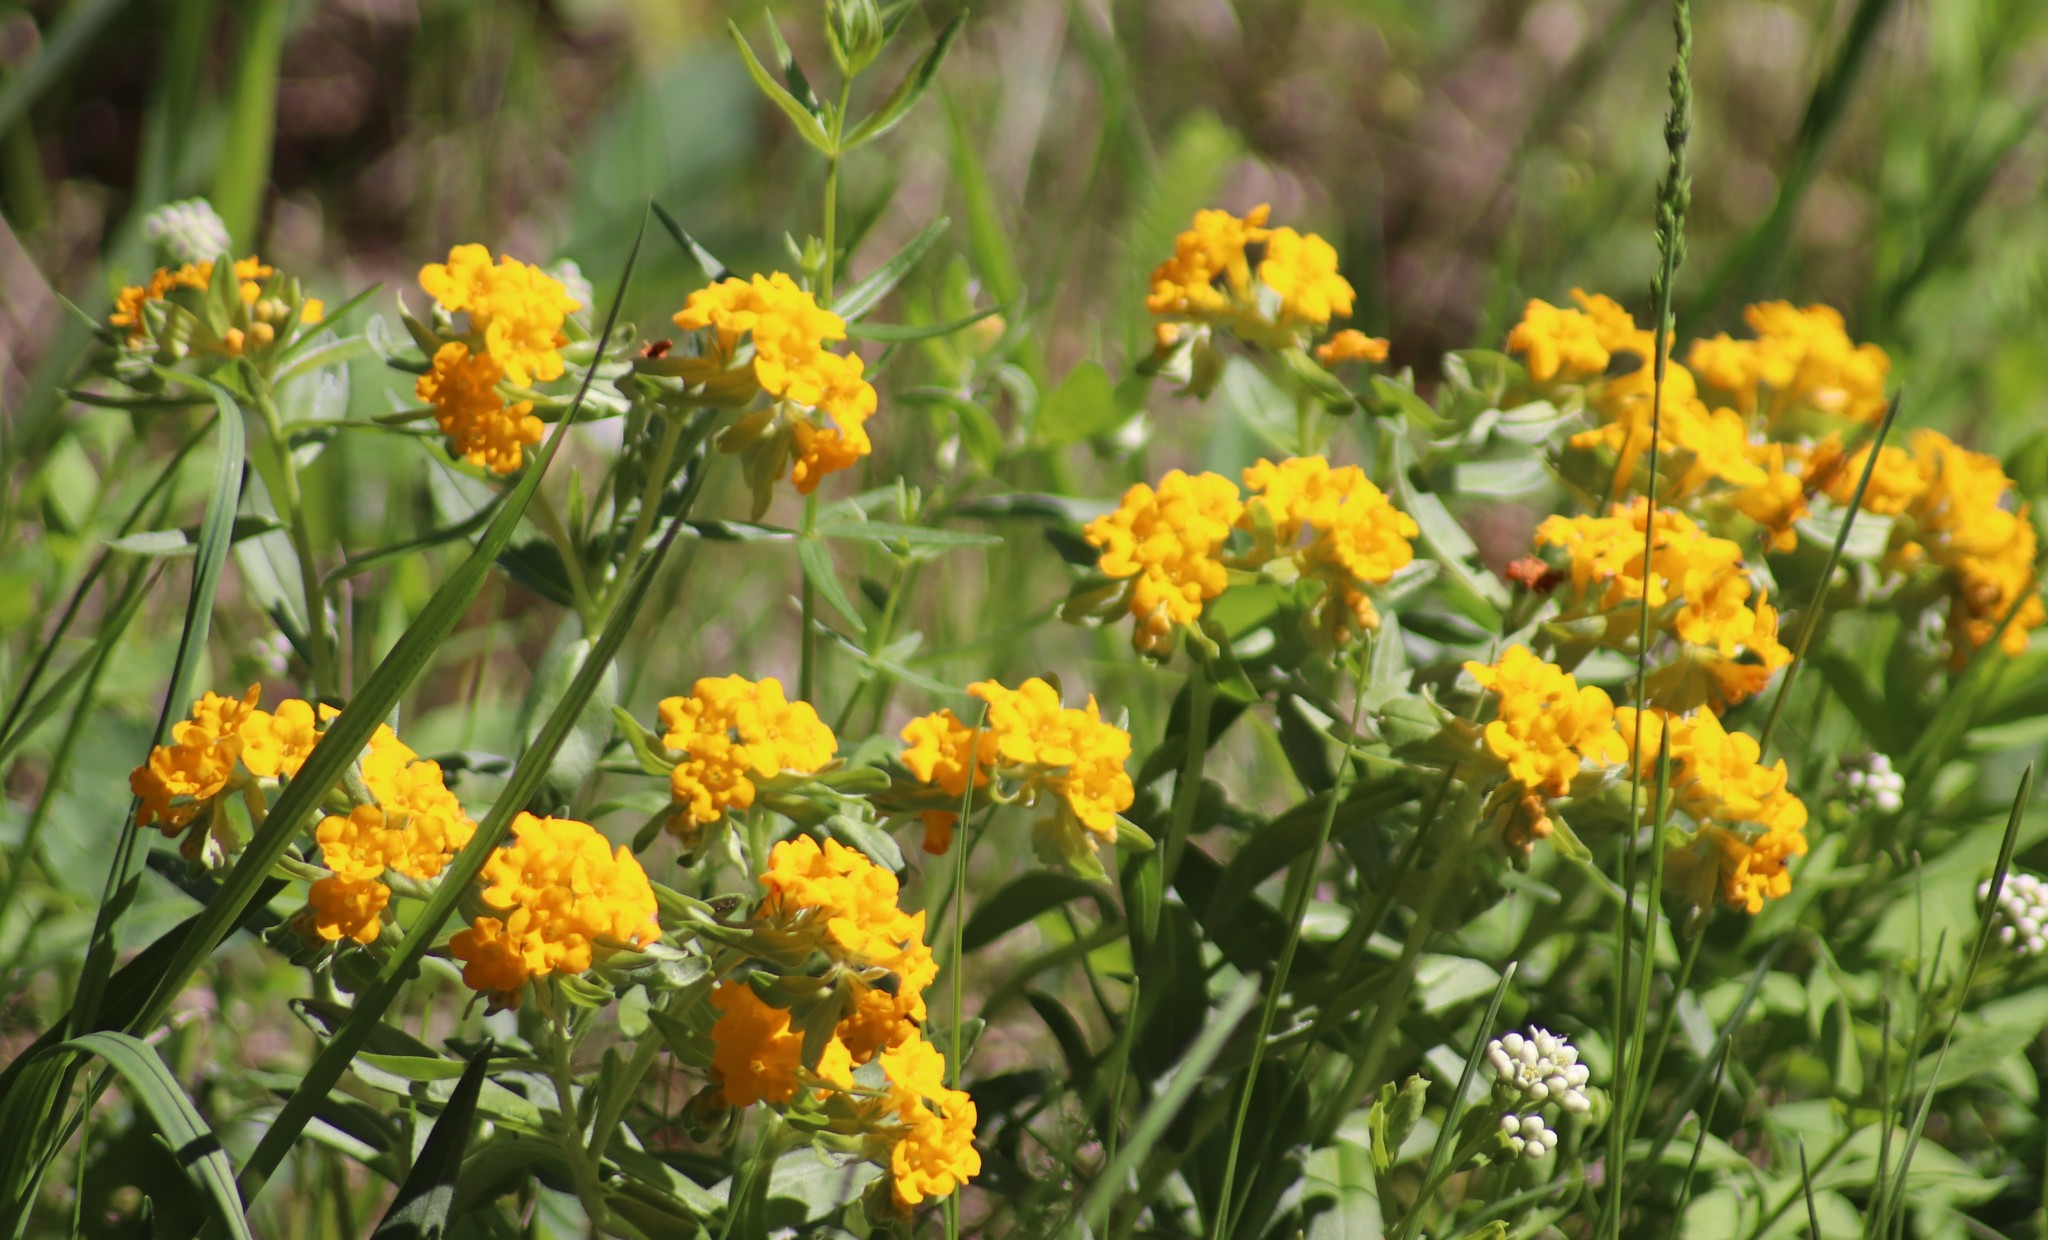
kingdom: Plantae
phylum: Tracheophyta
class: Magnoliopsida
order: Boraginales
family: Boraginaceae
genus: Lithospermum
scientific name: Lithospermum canescens
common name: Hoary puccoon
